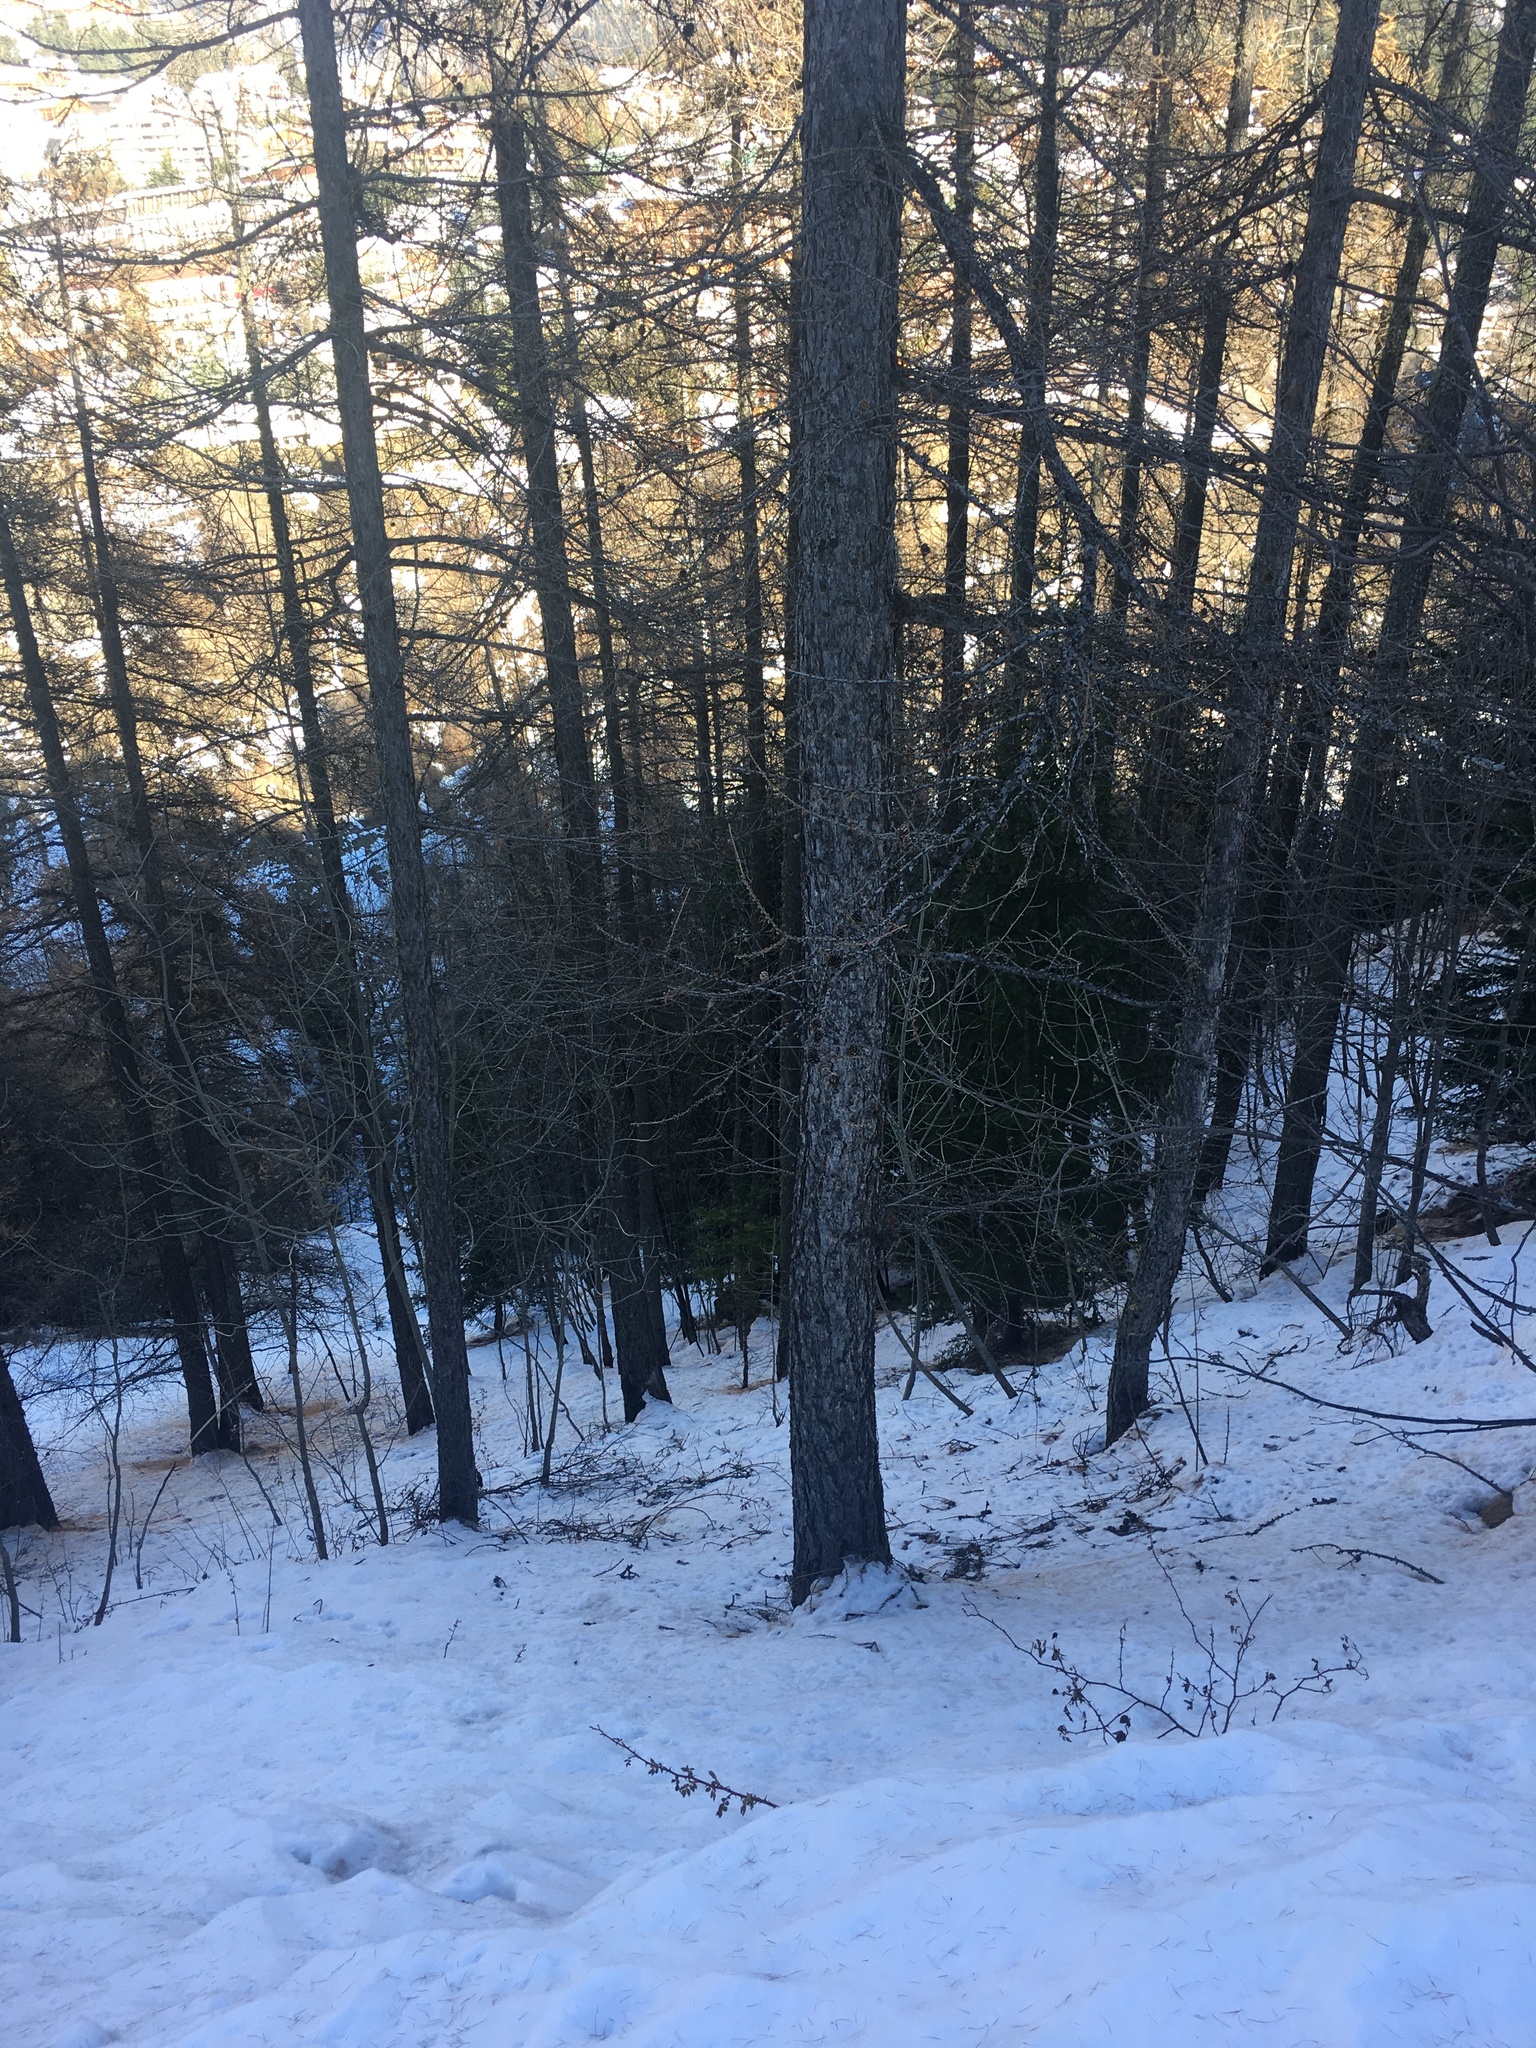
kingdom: Plantae
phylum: Tracheophyta
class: Pinopsida
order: Pinales
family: Pinaceae
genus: Larix
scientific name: Larix decidua
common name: European larch
